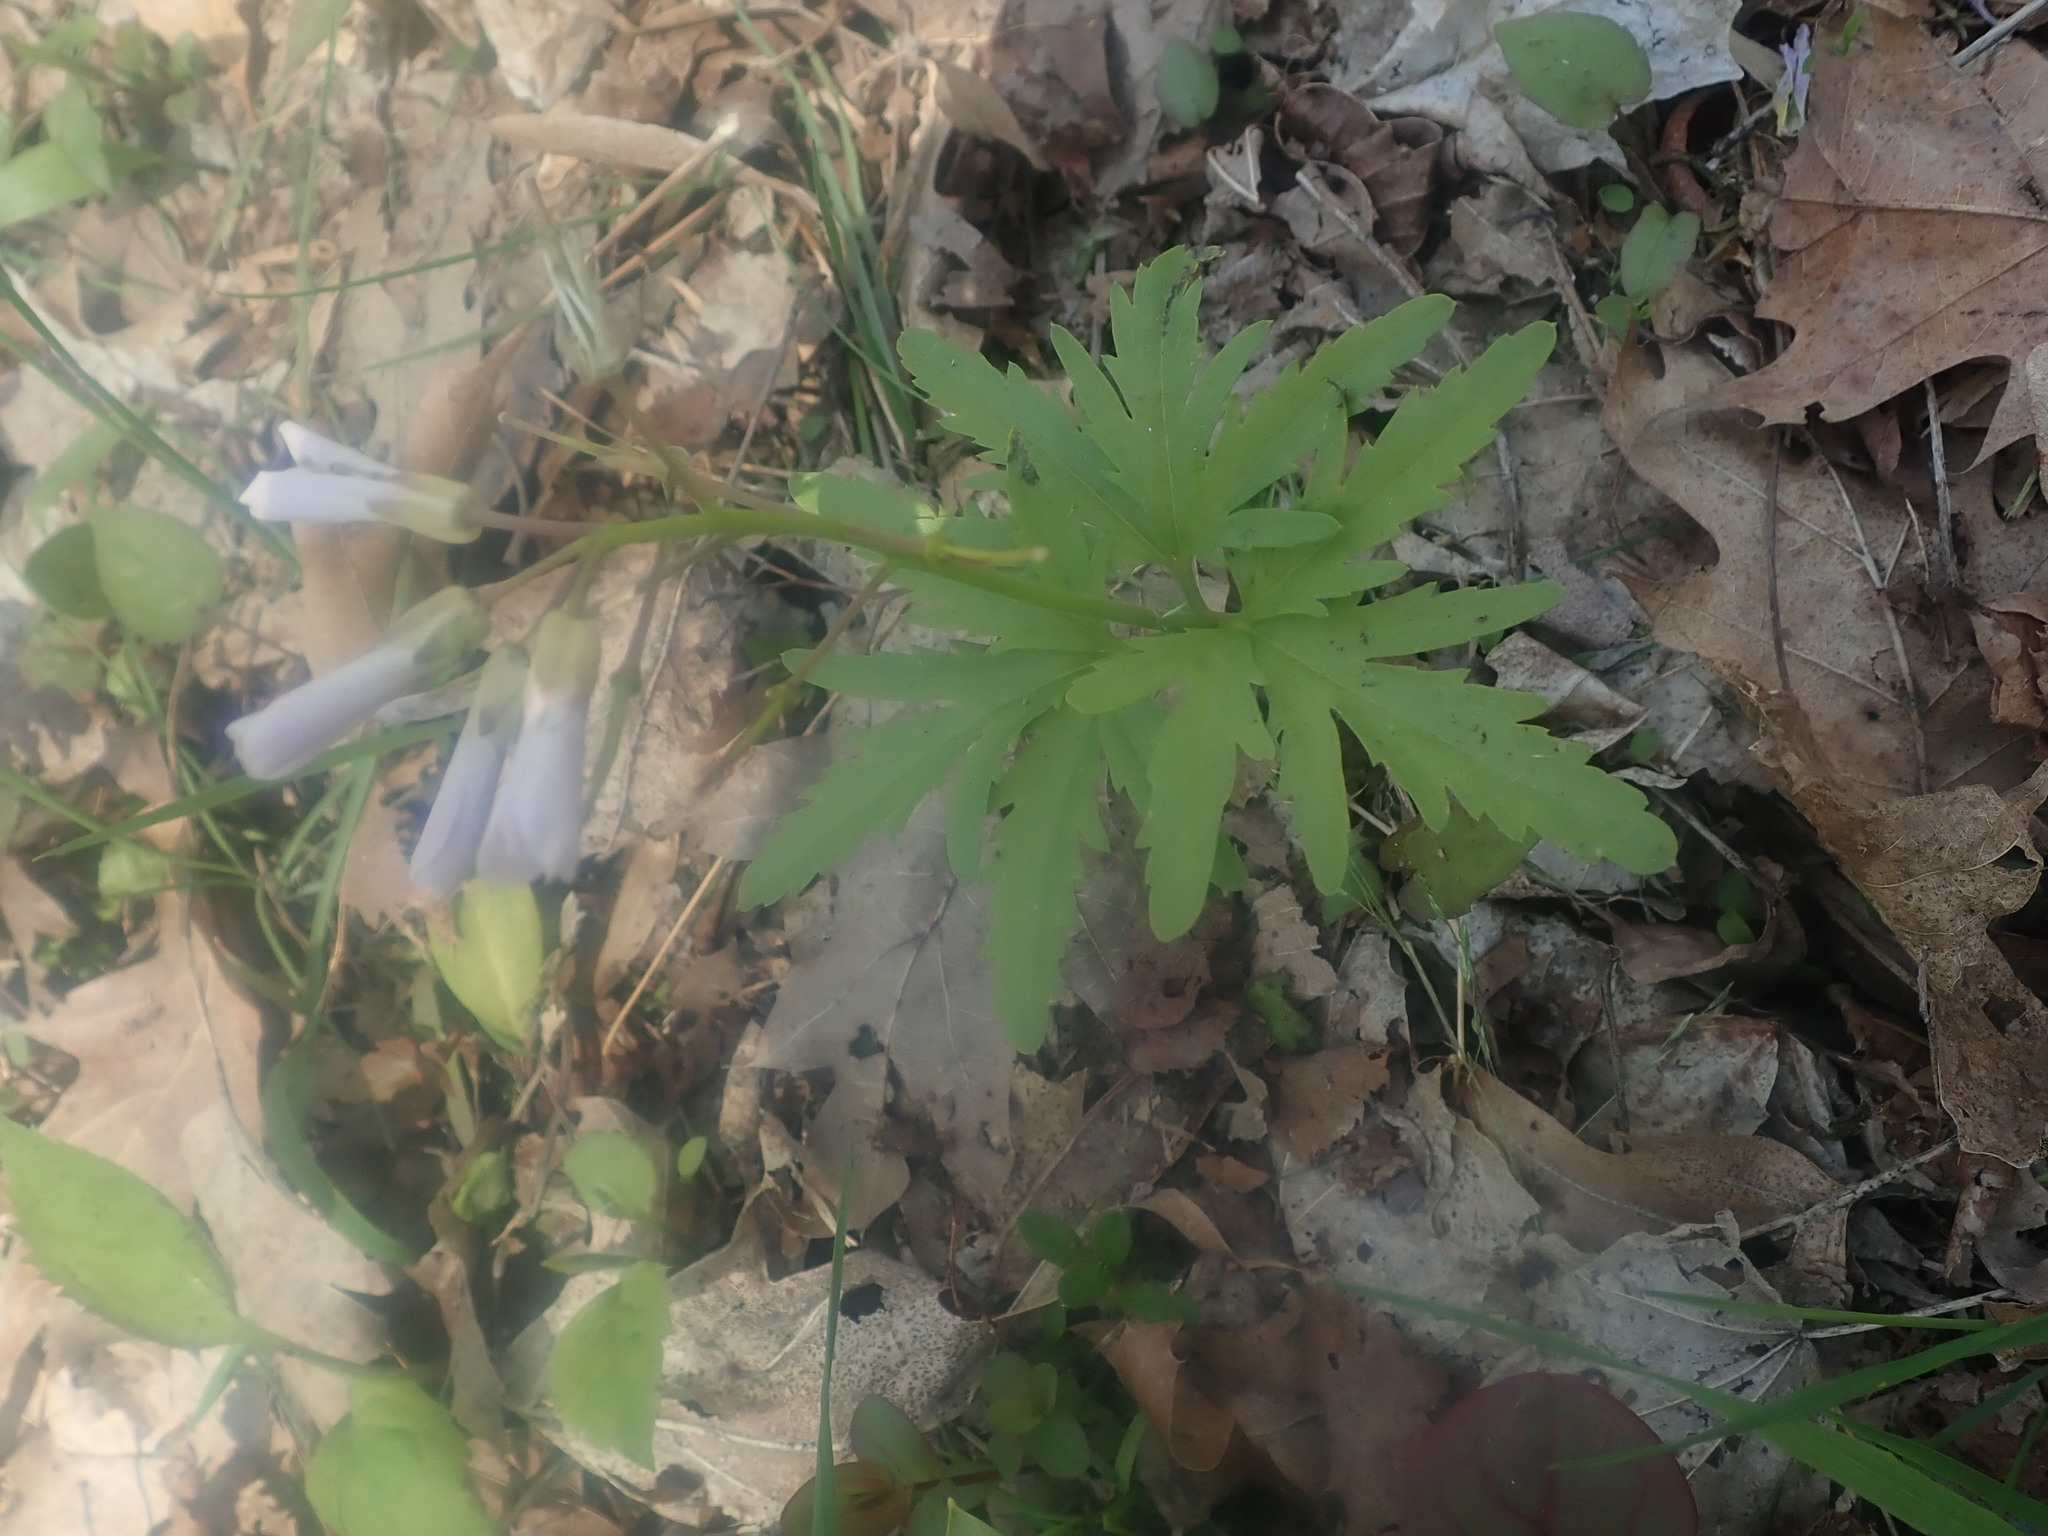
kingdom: Plantae
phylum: Tracheophyta
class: Magnoliopsida
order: Brassicales
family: Brassicaceae
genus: Cardamine
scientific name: Cardamine concatenata
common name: Cut-leaf toothcup
